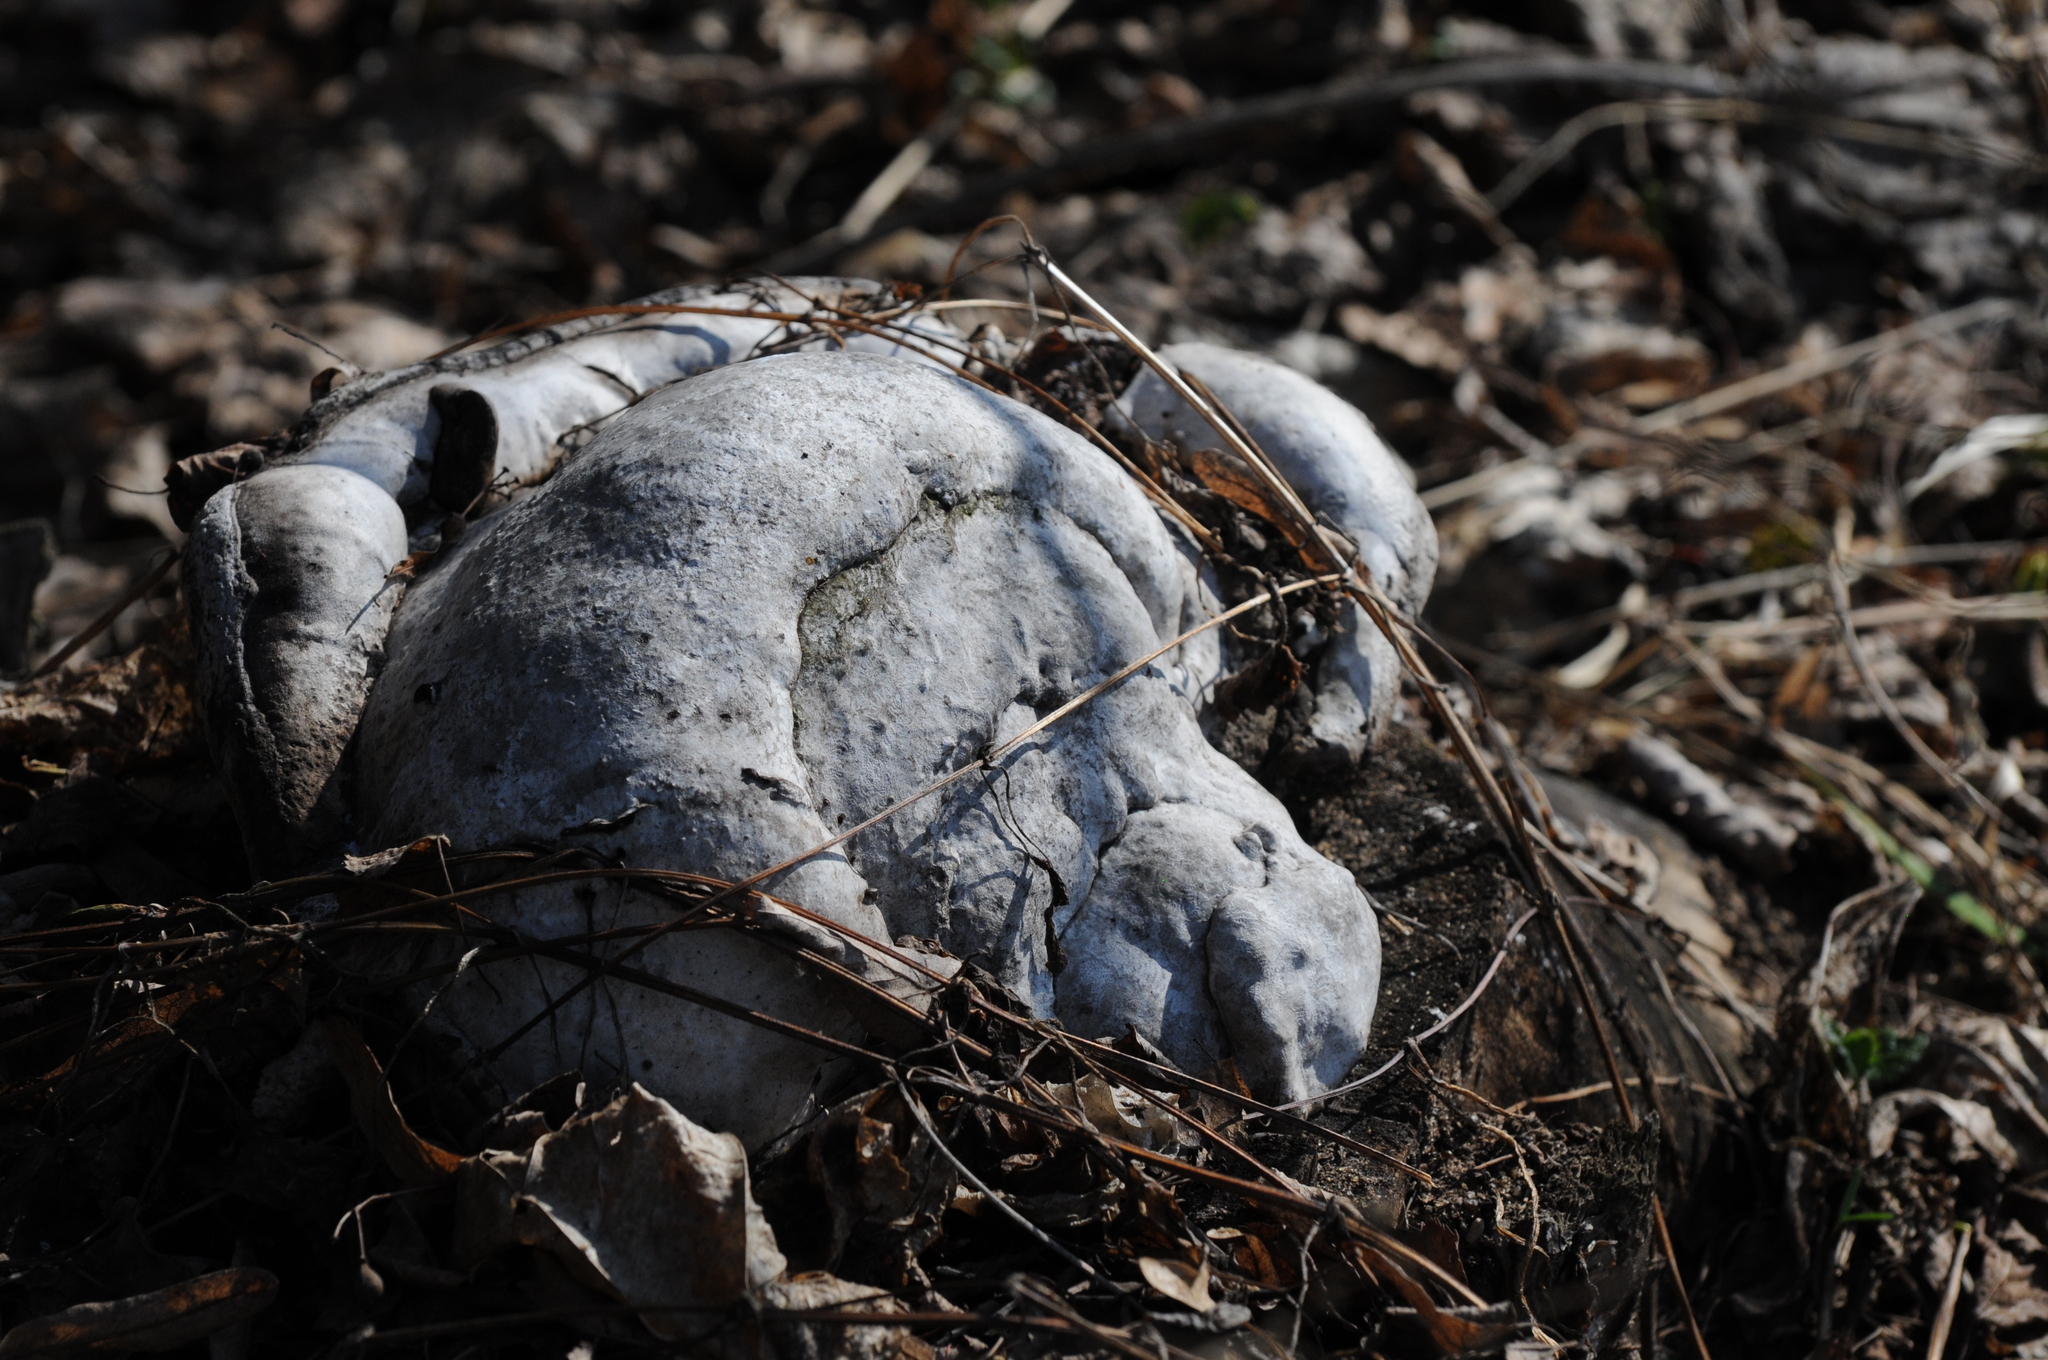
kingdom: Fungi
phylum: Basidiomycota
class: Agaricomycetes
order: Polyporales
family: Polyporaceae
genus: Fomes
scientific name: Fomes fomentarius
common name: Hoof fungus
